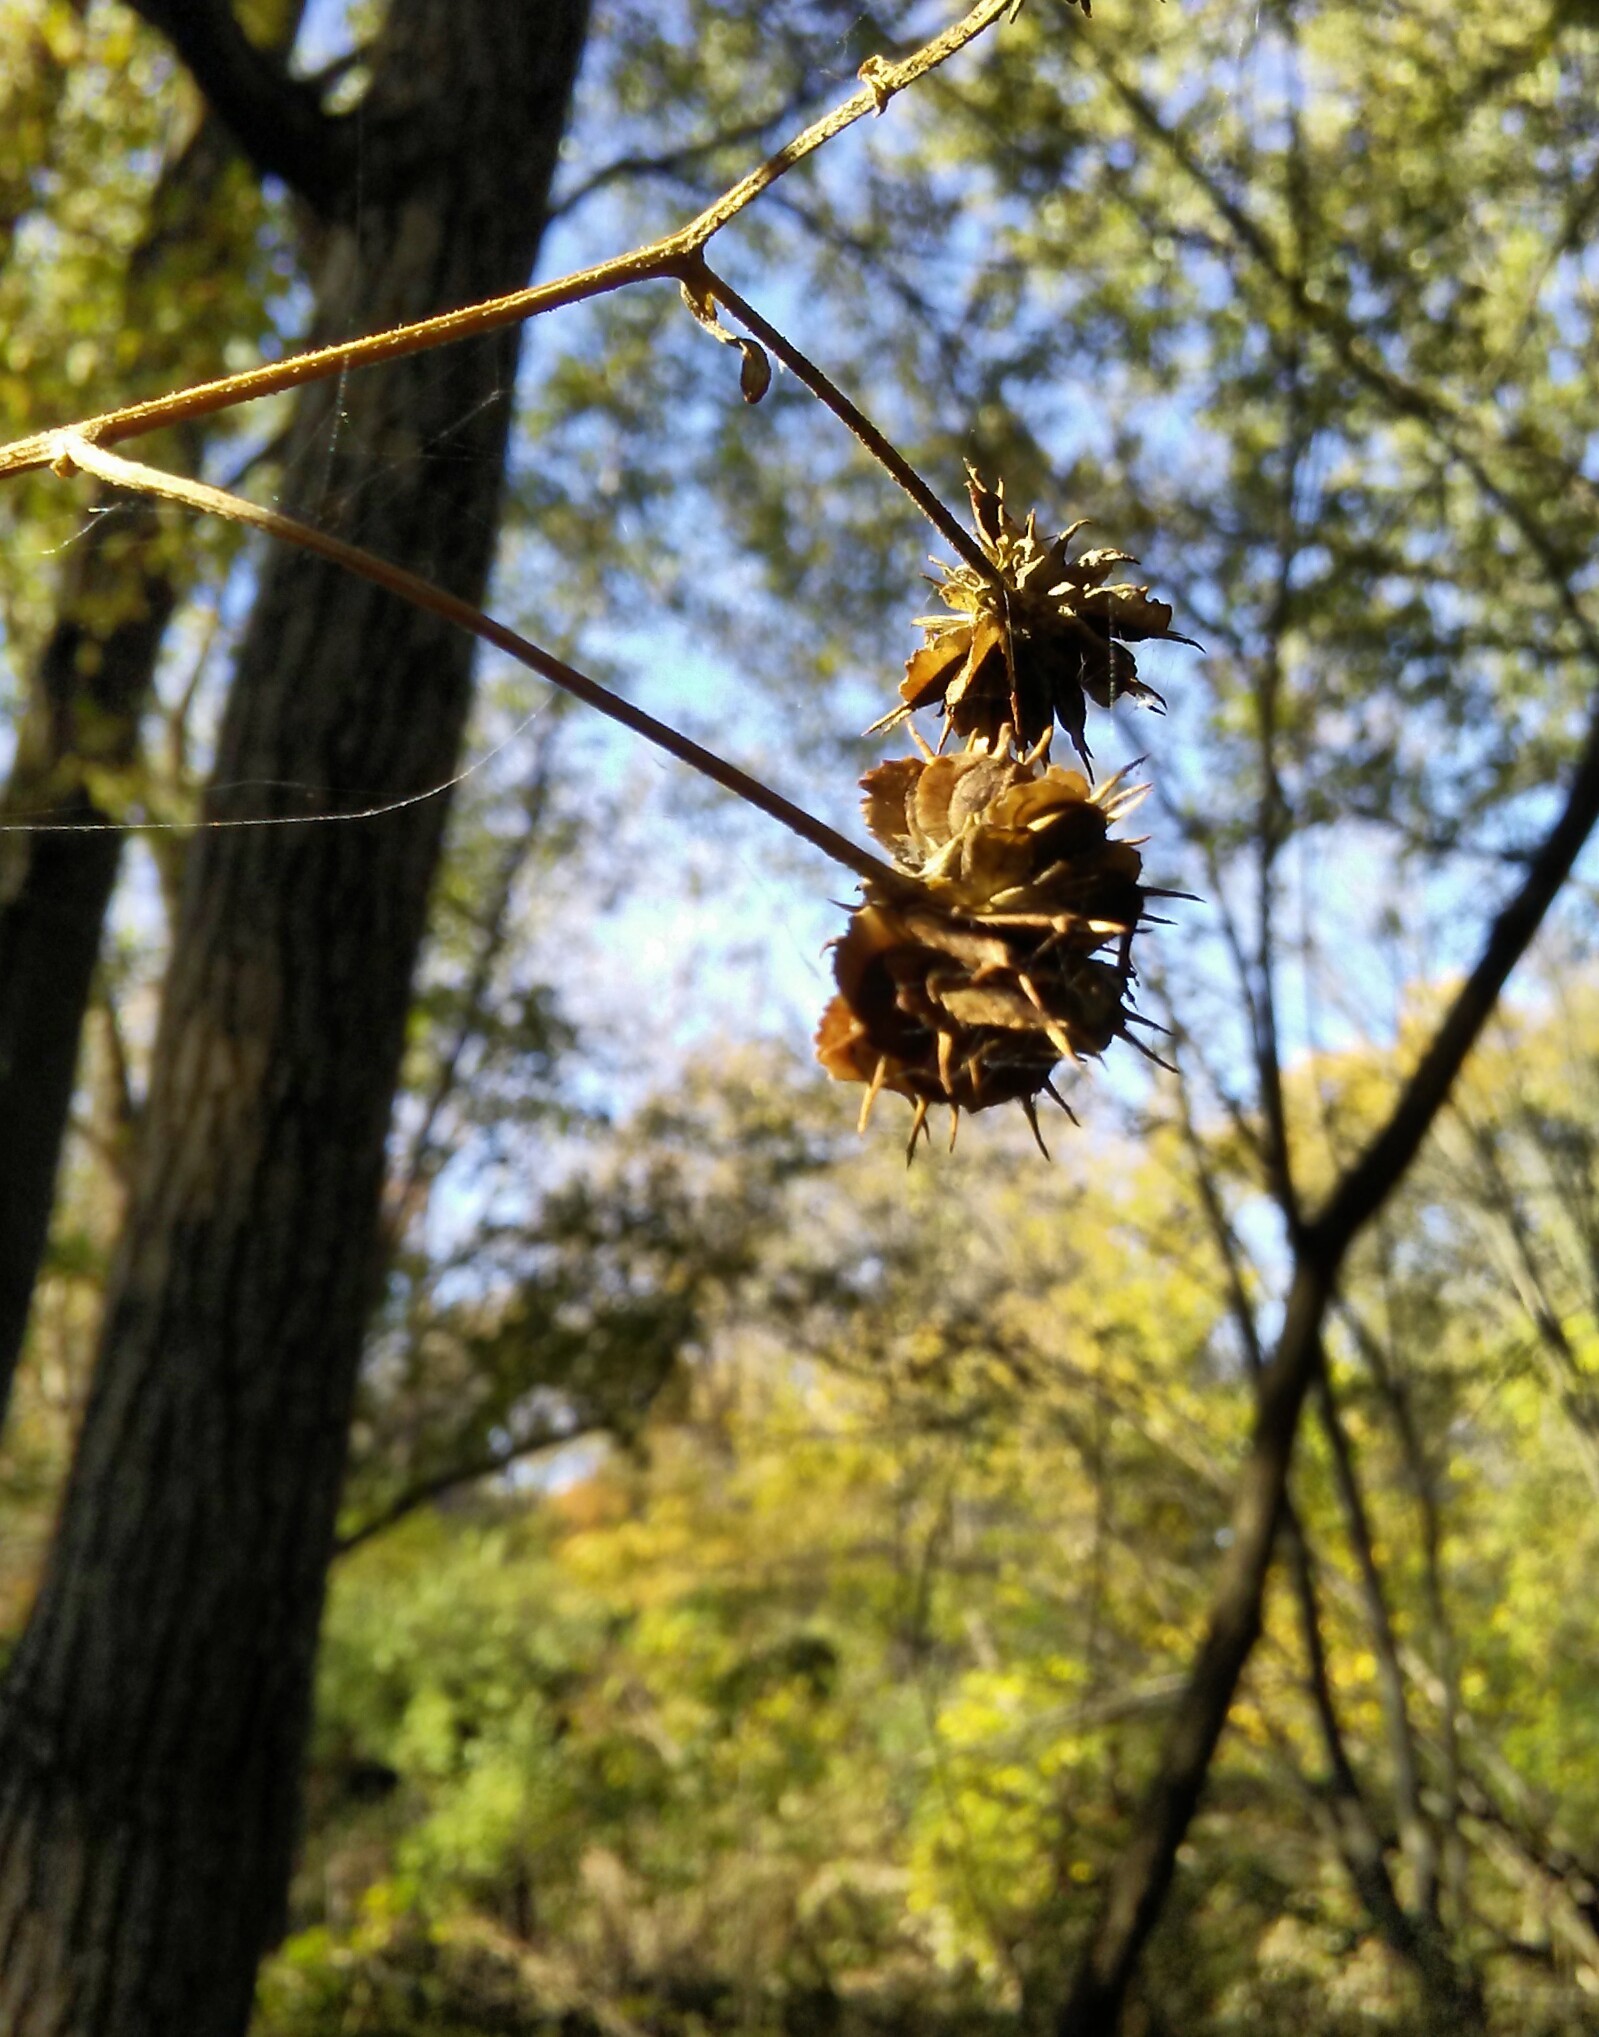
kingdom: Plantae
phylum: Tracheophyta
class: Magnoliopsida
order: Asterales
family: Asteraceae
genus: Verbesina
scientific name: Verbesina alternifolia
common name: Wingstem
